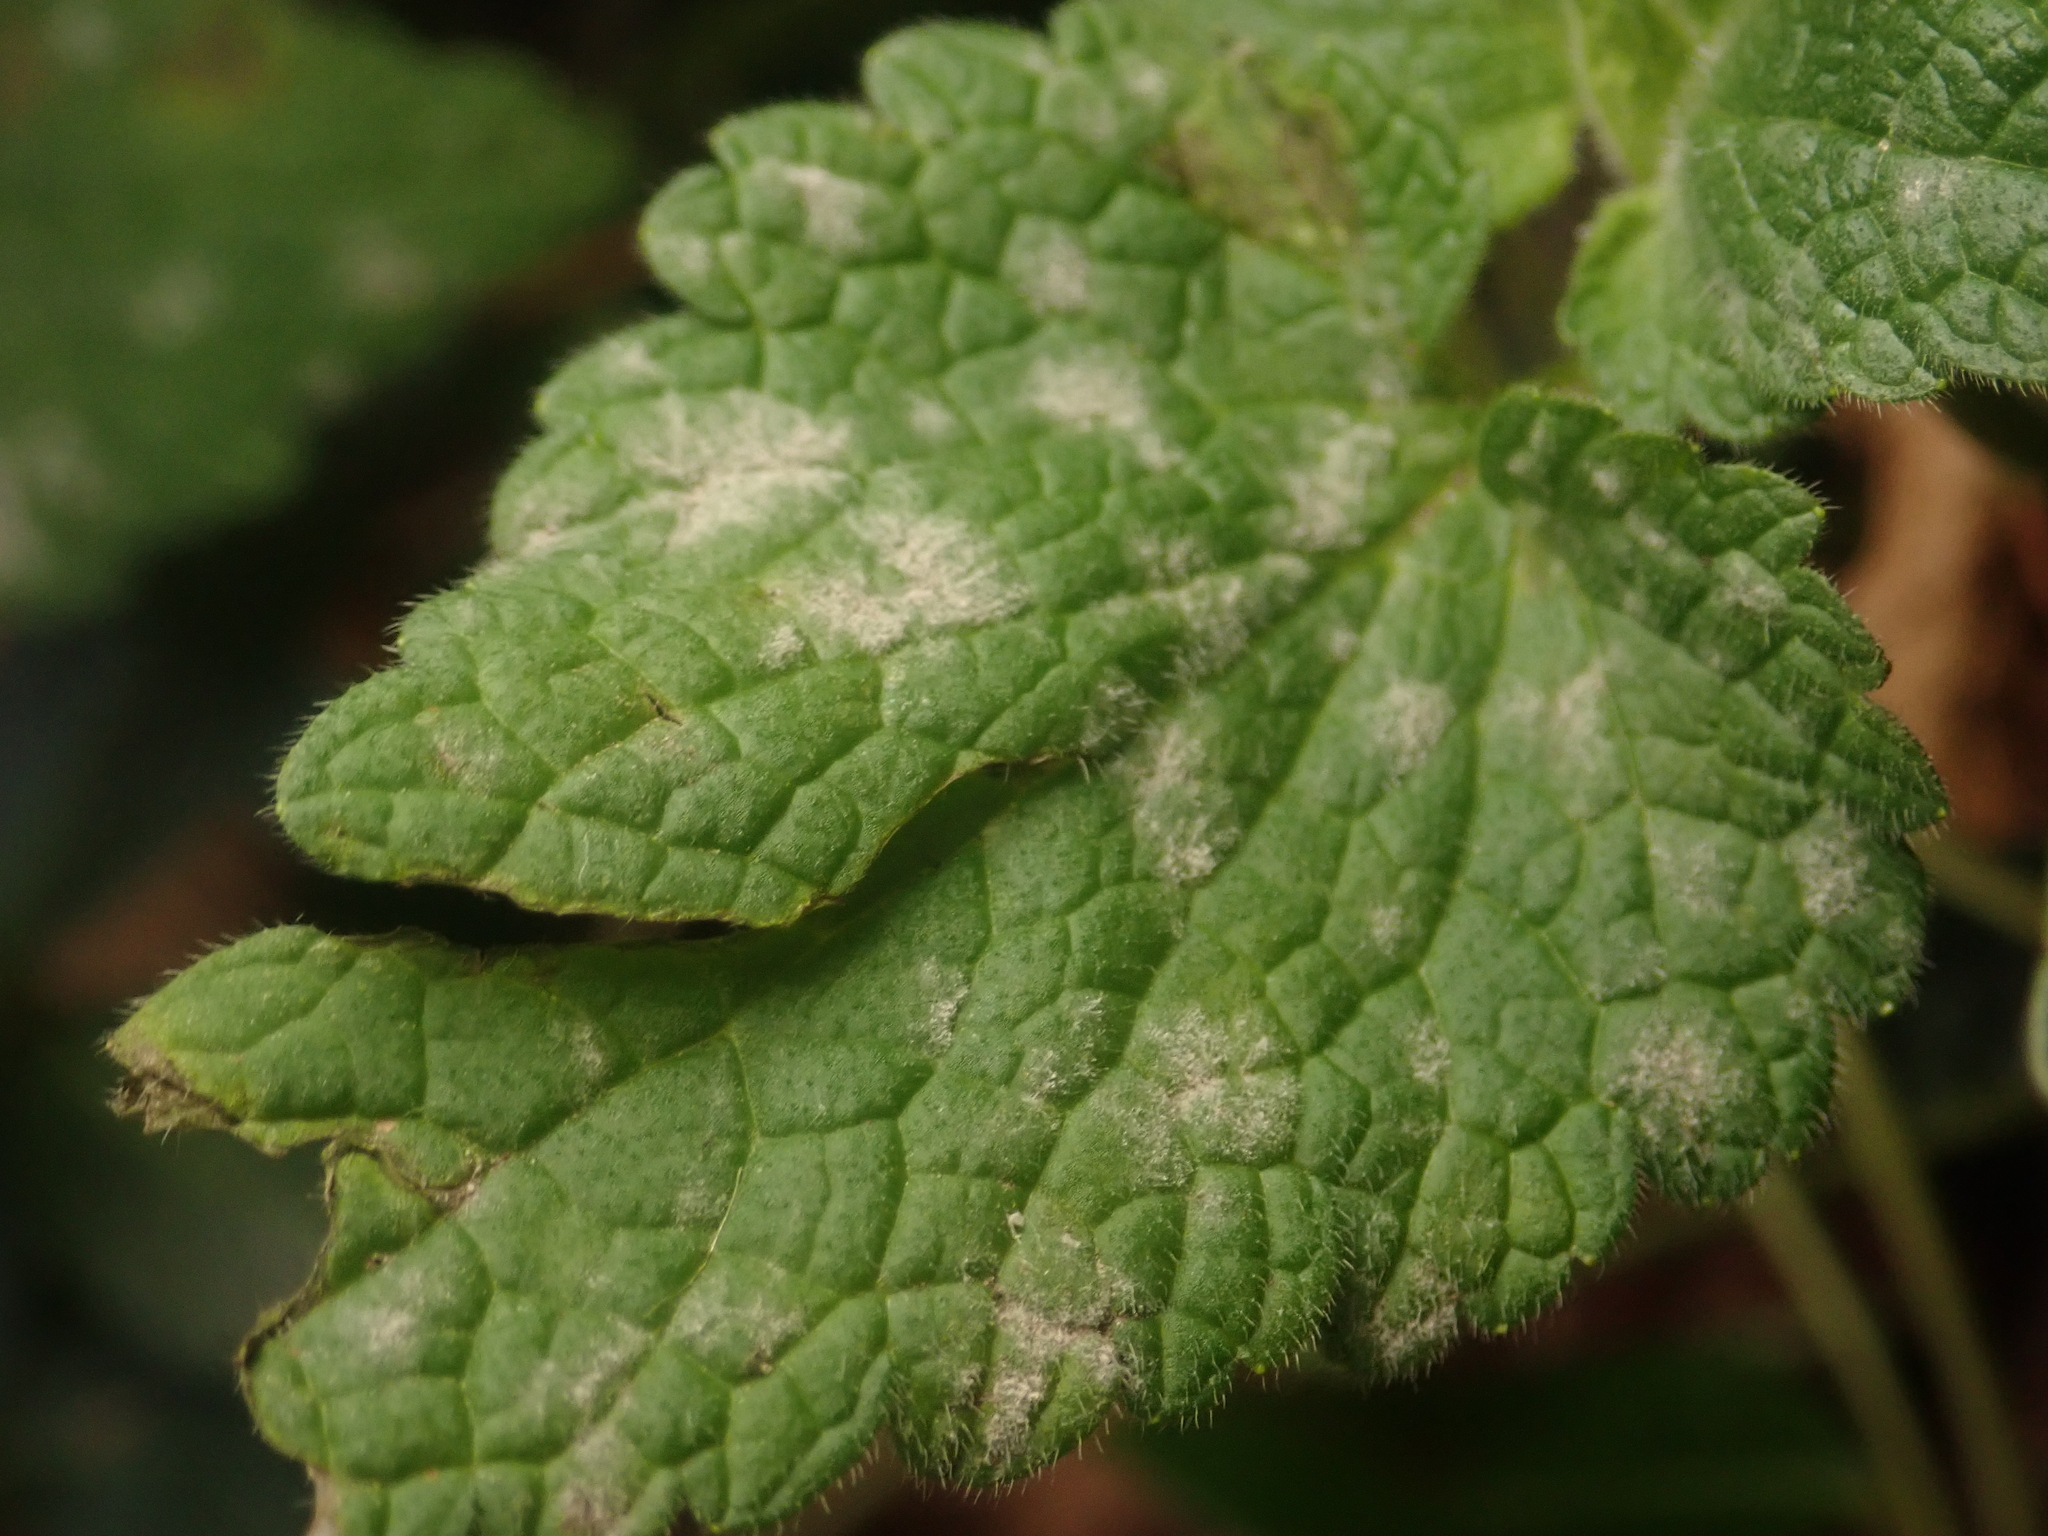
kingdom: Fungi
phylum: Ascomycota
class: Leotiomycetes
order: Helotiales
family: Erysiphaceae
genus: Neoerysiphe
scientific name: Neoerysiphe galeopsidis
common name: Mint mildew
